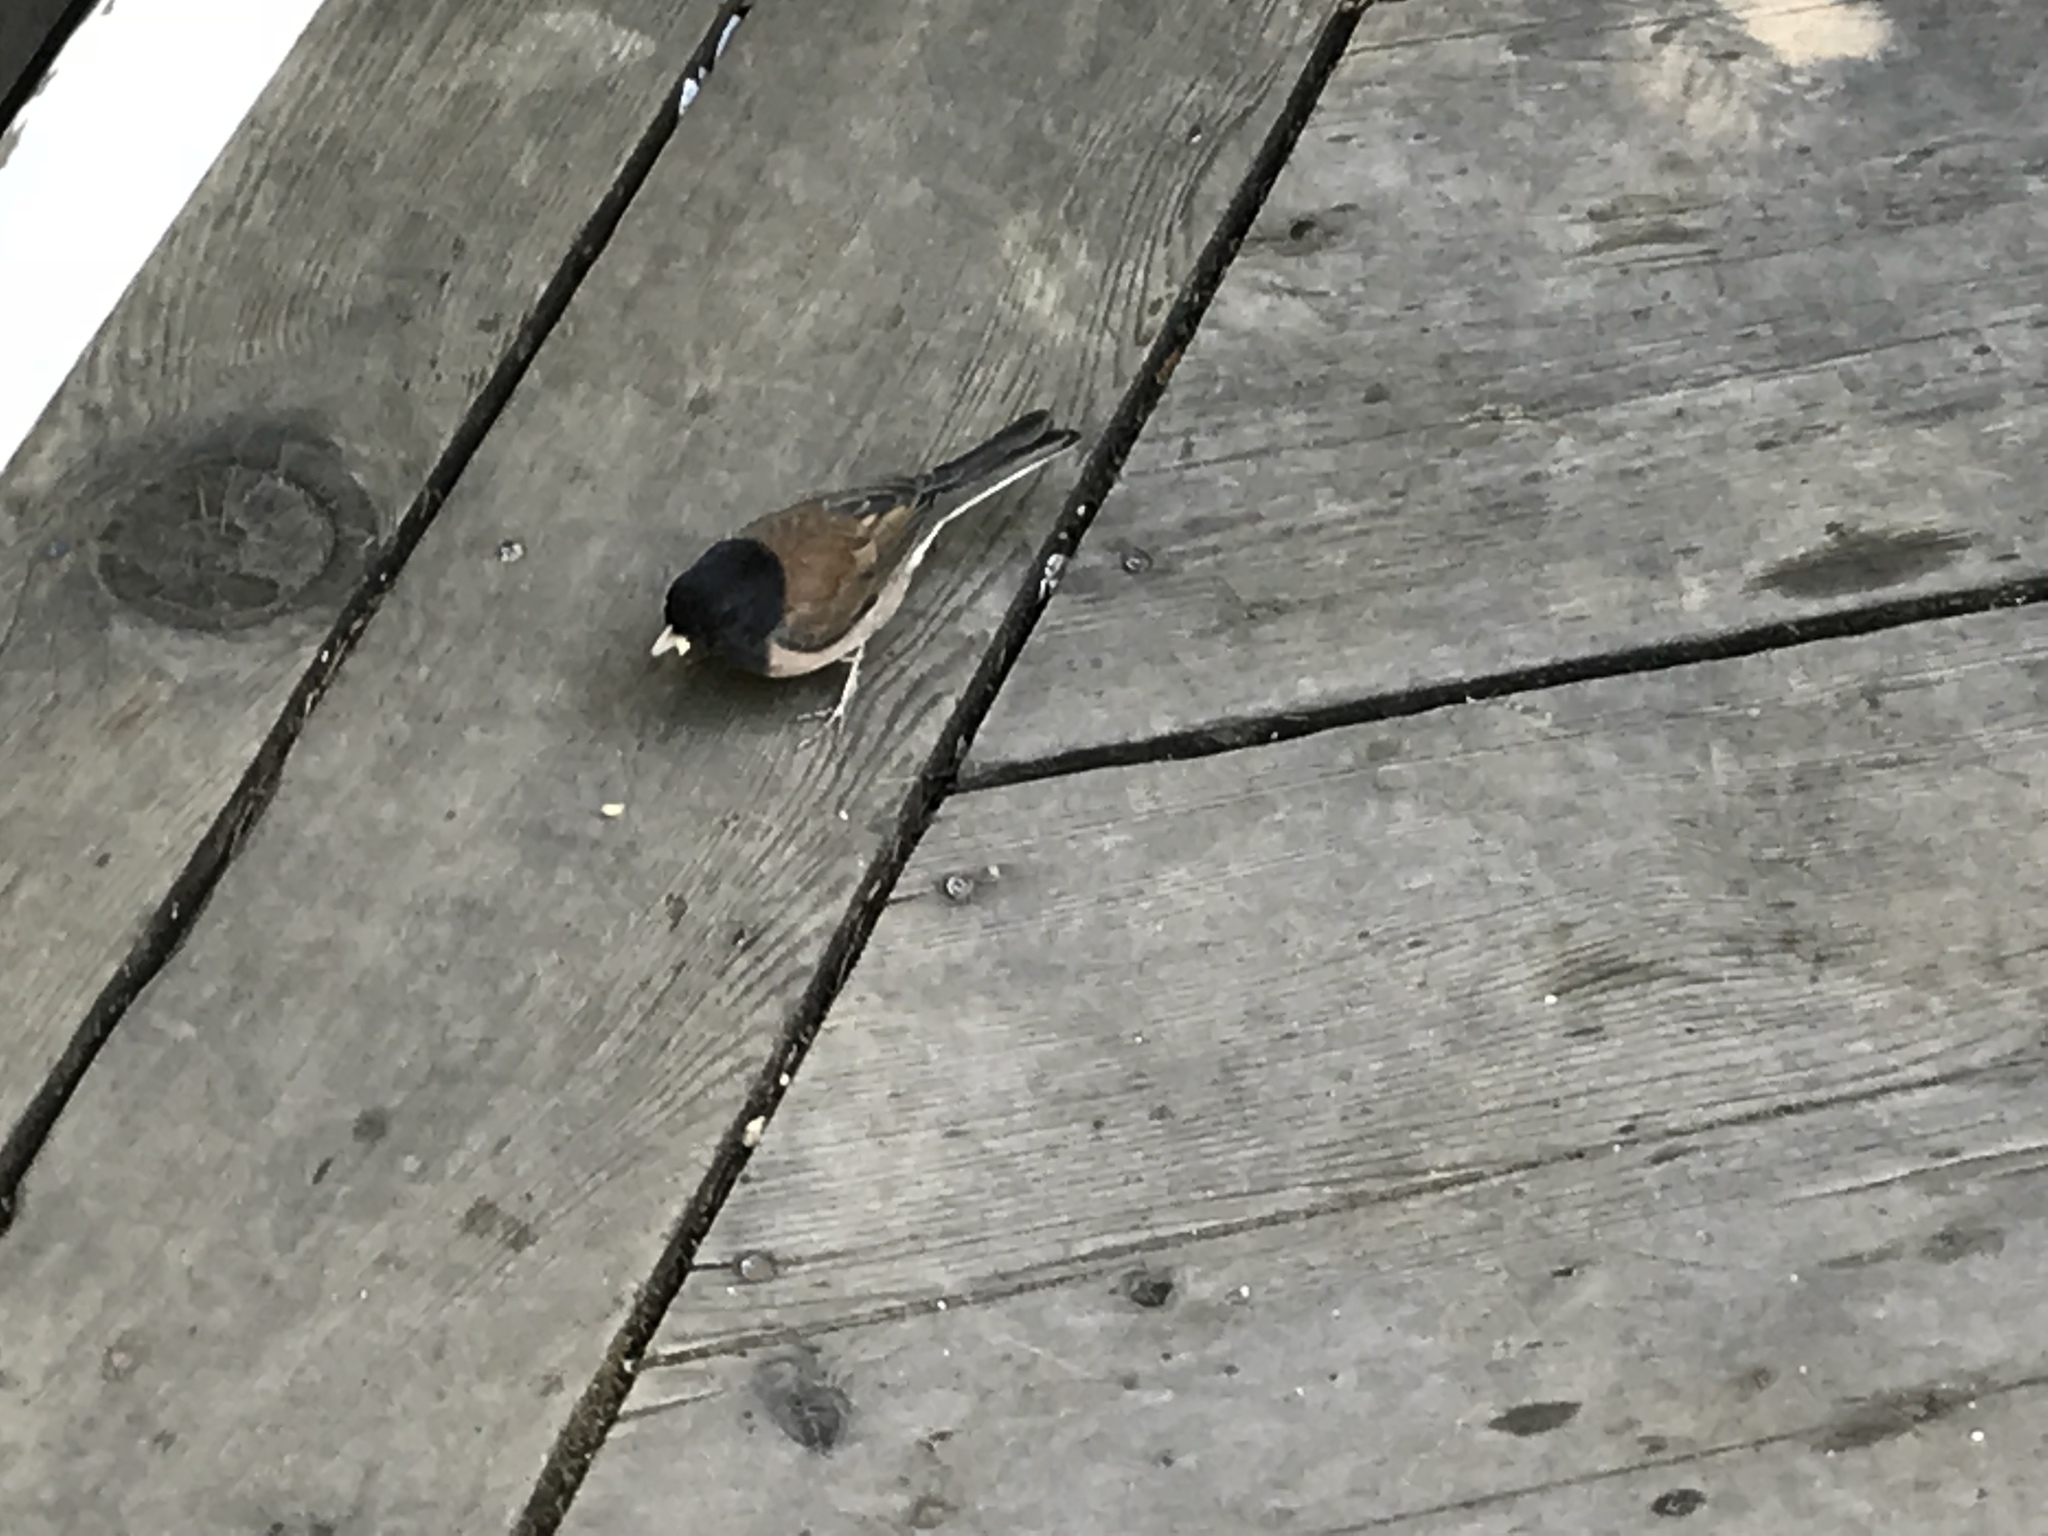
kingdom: Animalia
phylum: Chordata
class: Aves
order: Passeriformes
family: Passerellidae
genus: Junco
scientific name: Junco hyemalis
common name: Dark-eyed junco
